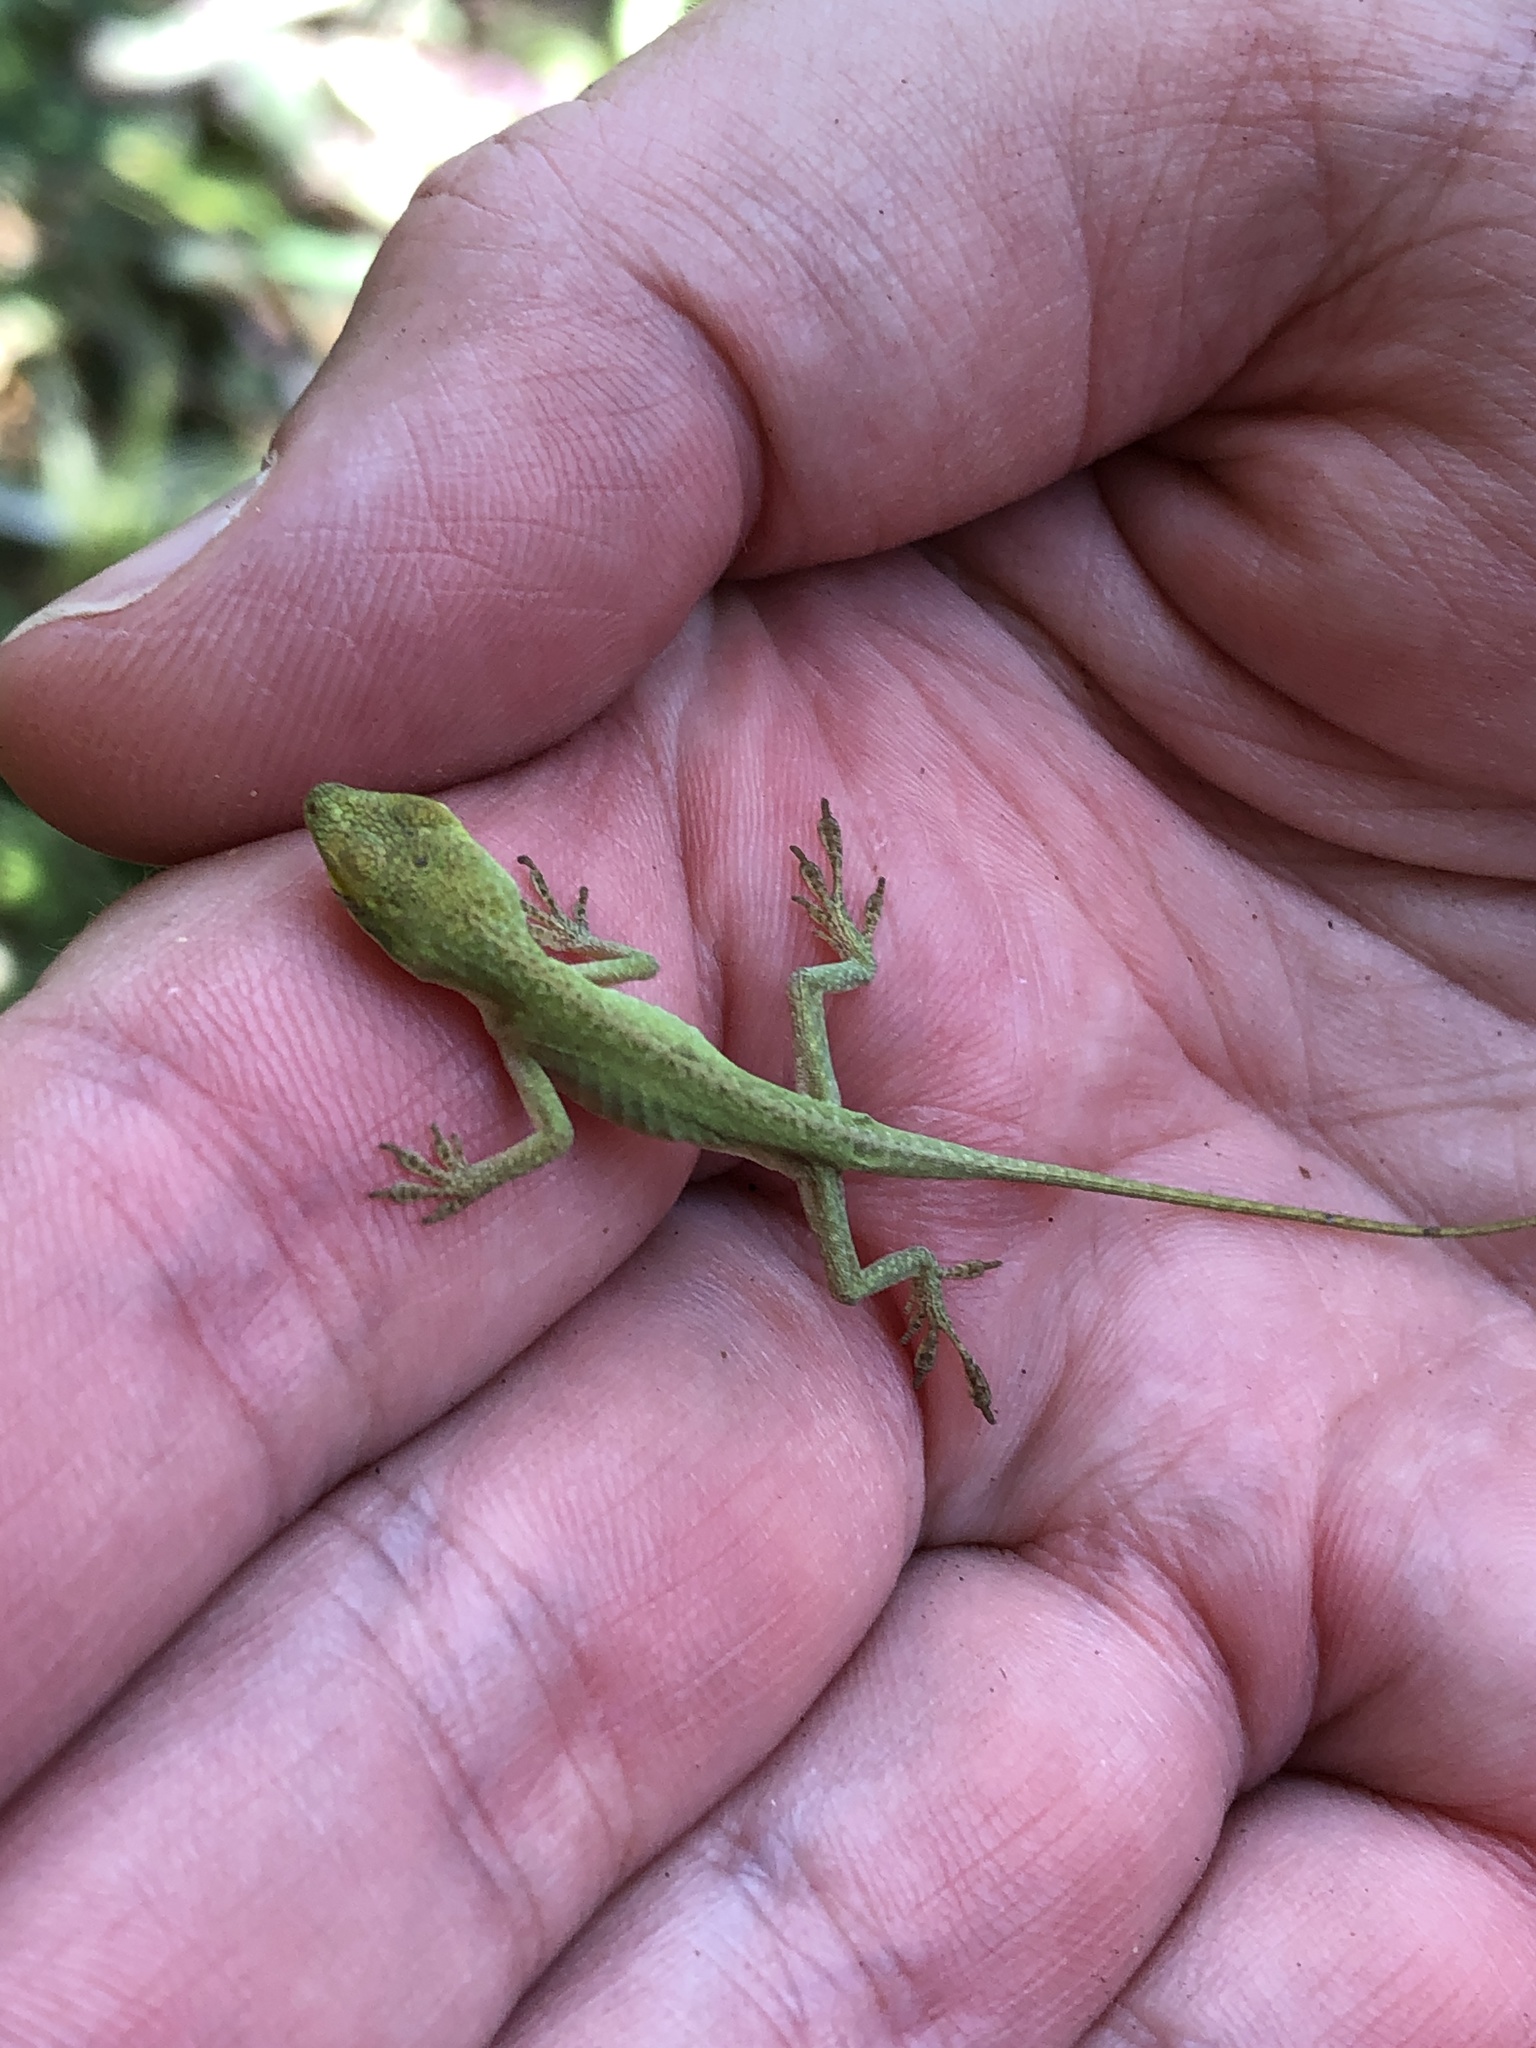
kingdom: Animalia
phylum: Chordata
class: Squamata
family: Dactyloidae
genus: Anolis
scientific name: Anolis carolinensis
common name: Green anole
